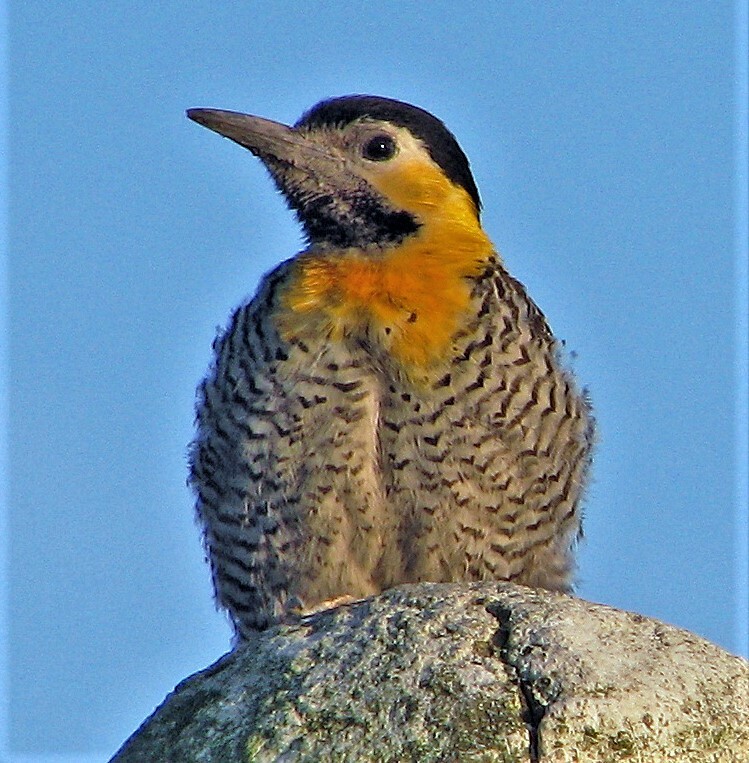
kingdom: Animalia
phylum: Chordata
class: Aves
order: Piciformes
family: Picidae
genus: Colaptes
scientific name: Colaptes campestris
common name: Campo flicker
